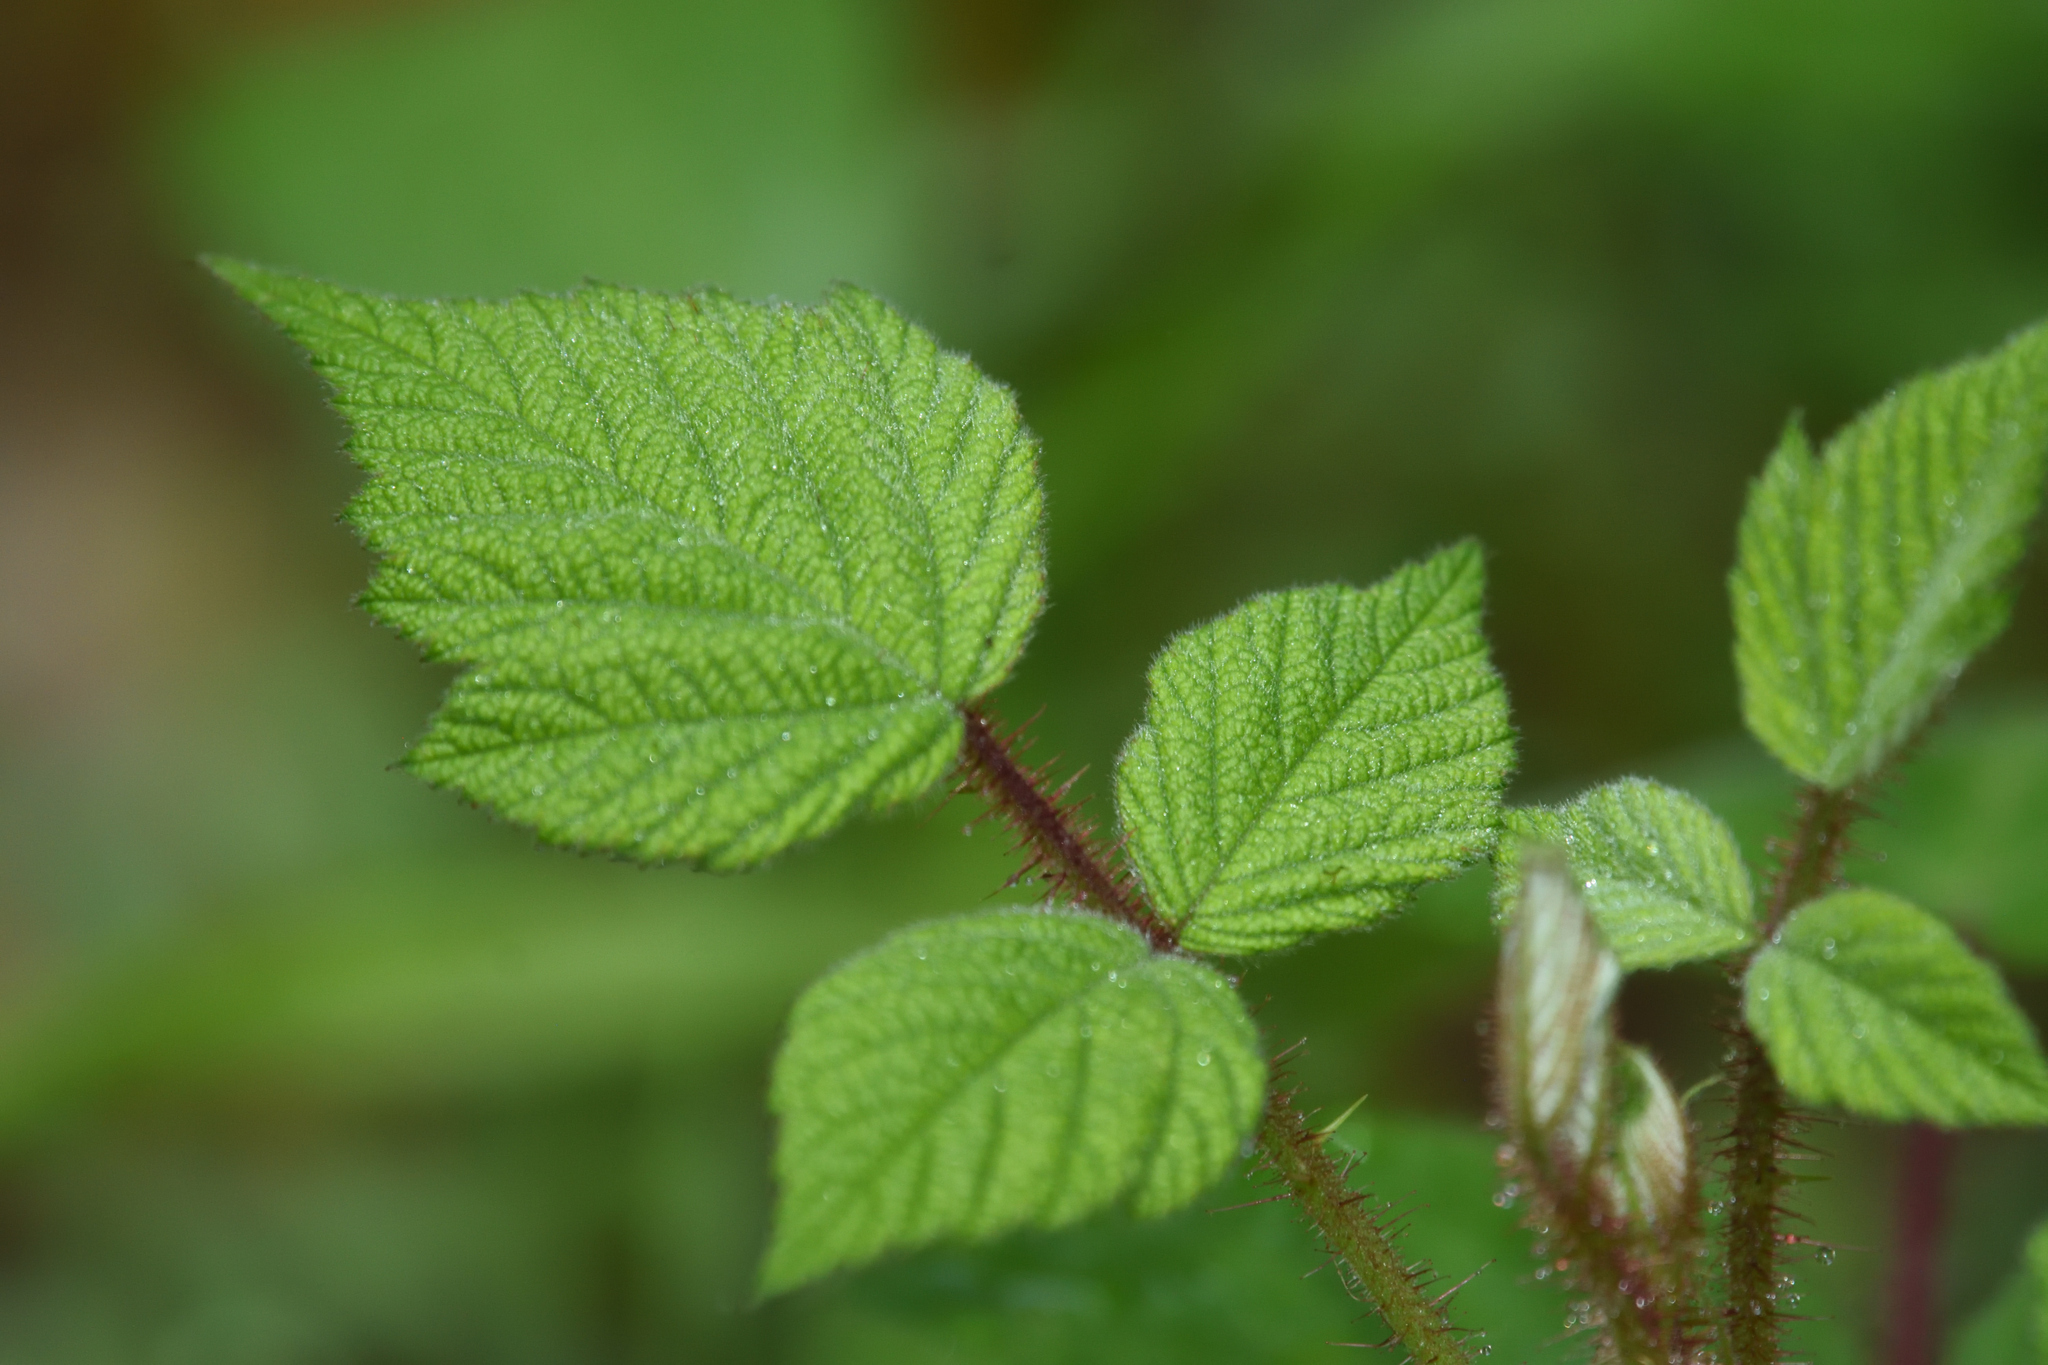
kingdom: Plantae
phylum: Tracheophyta
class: Magnoliopsida
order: Rosales
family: Rosaceae
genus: Rubus
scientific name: Rubus phoenicolasius
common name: Japanese wineberry
